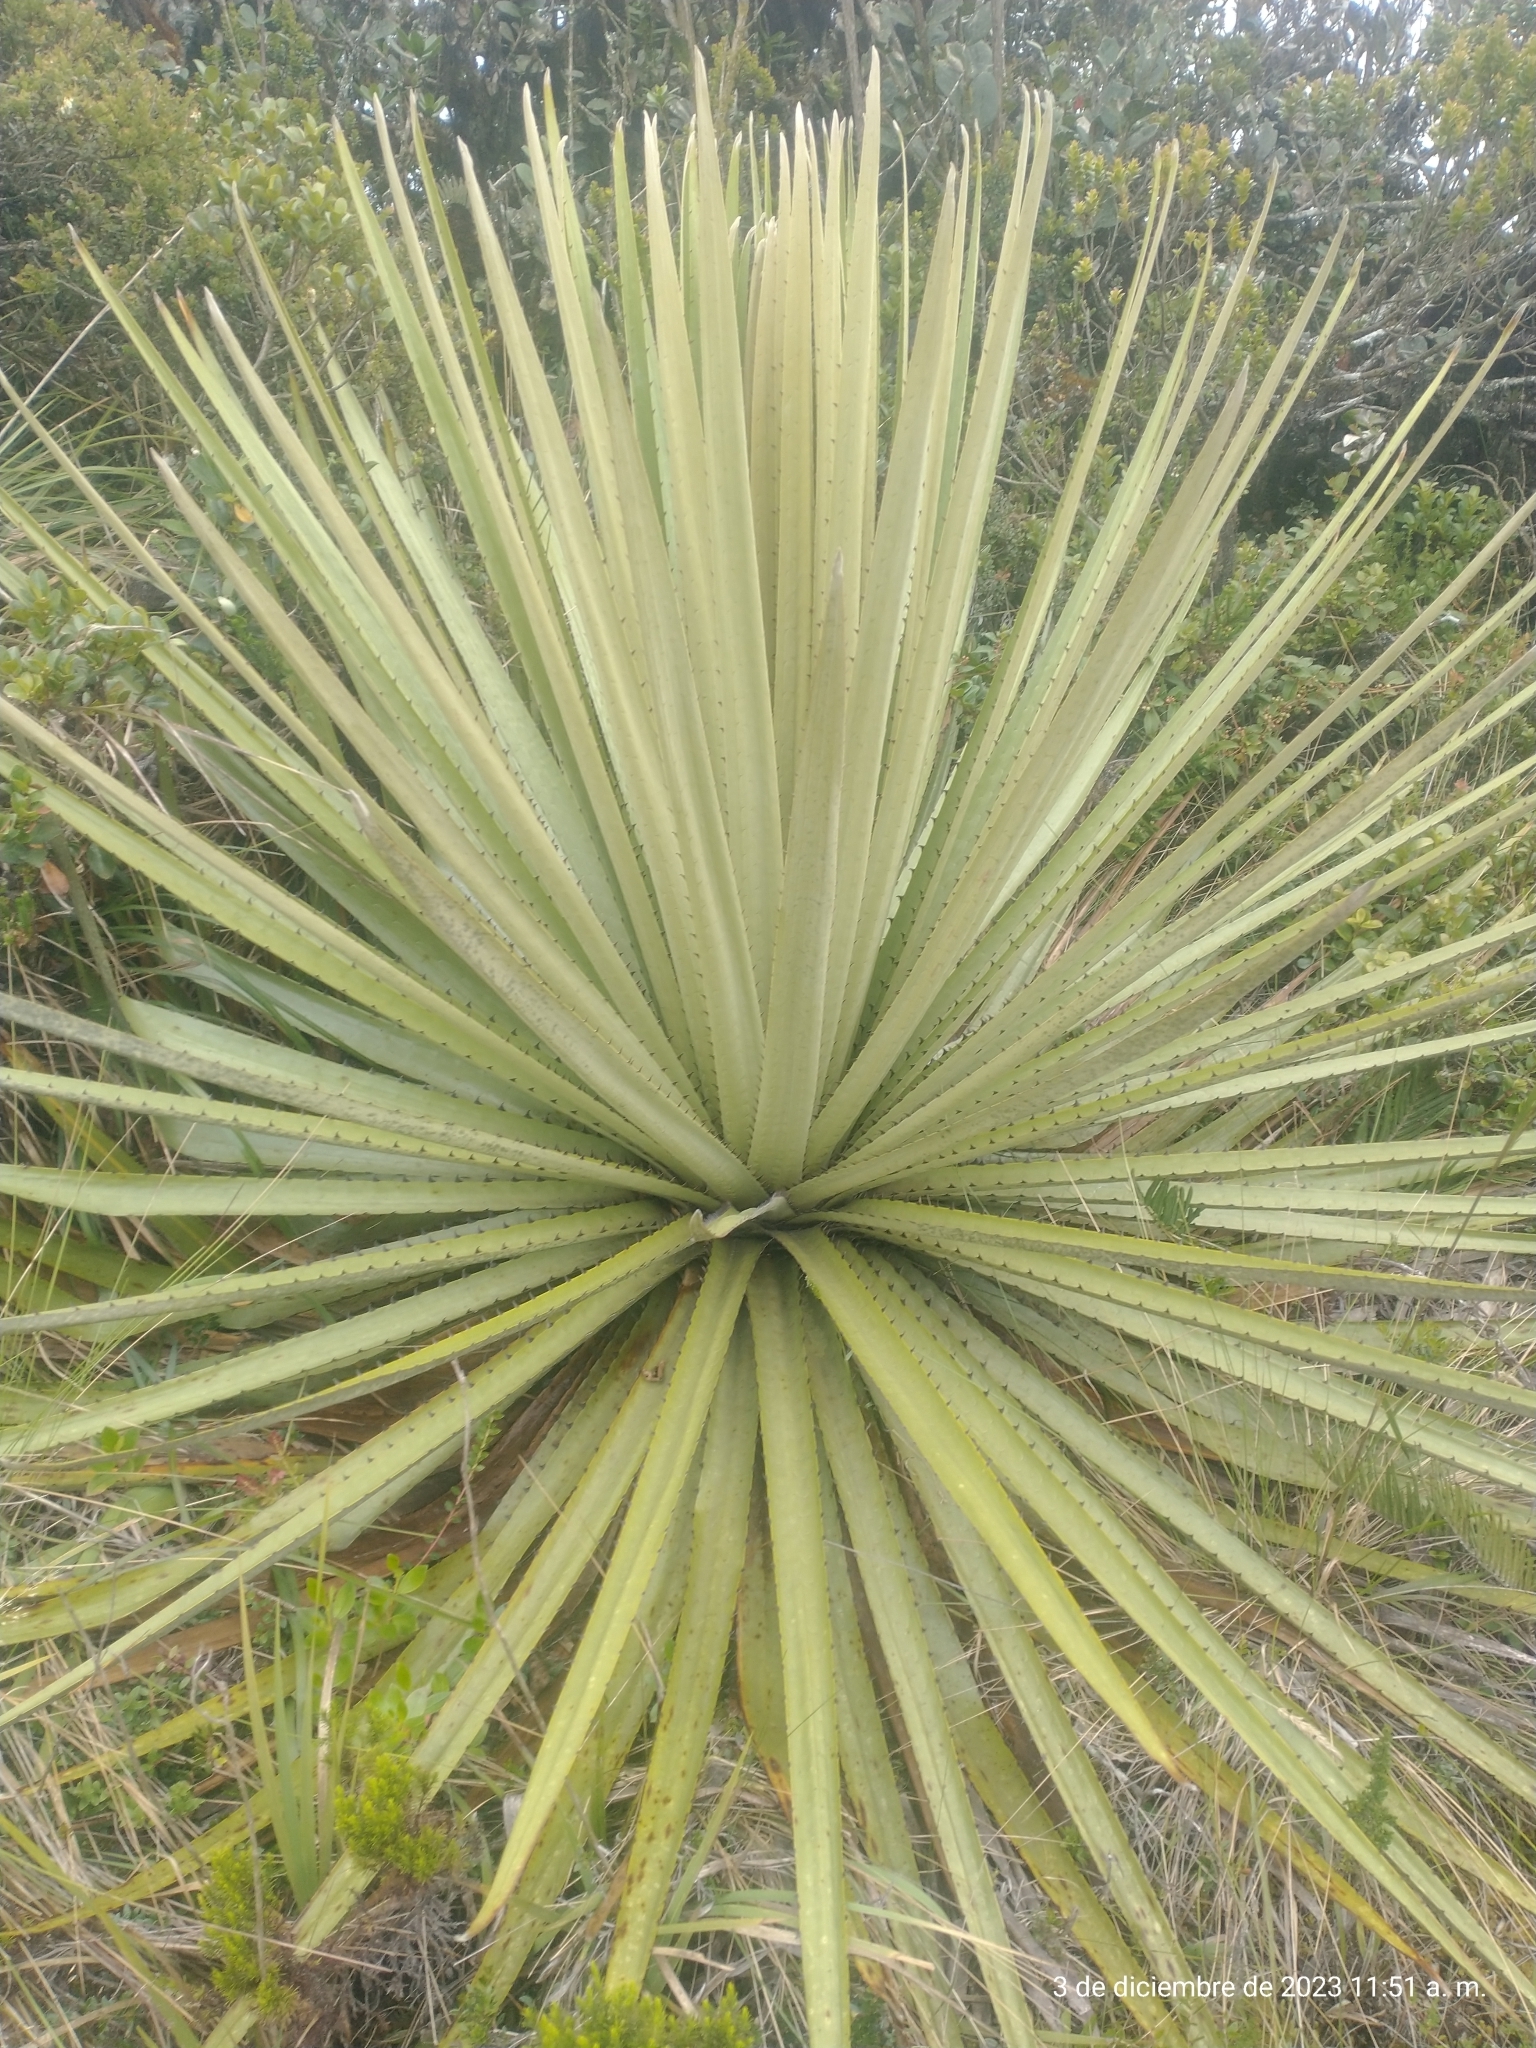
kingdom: Plantae
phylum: Tracheophyta
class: Liliopsida
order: Poales
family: Bromeliaceae
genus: Puya
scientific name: Puya goudotiana
